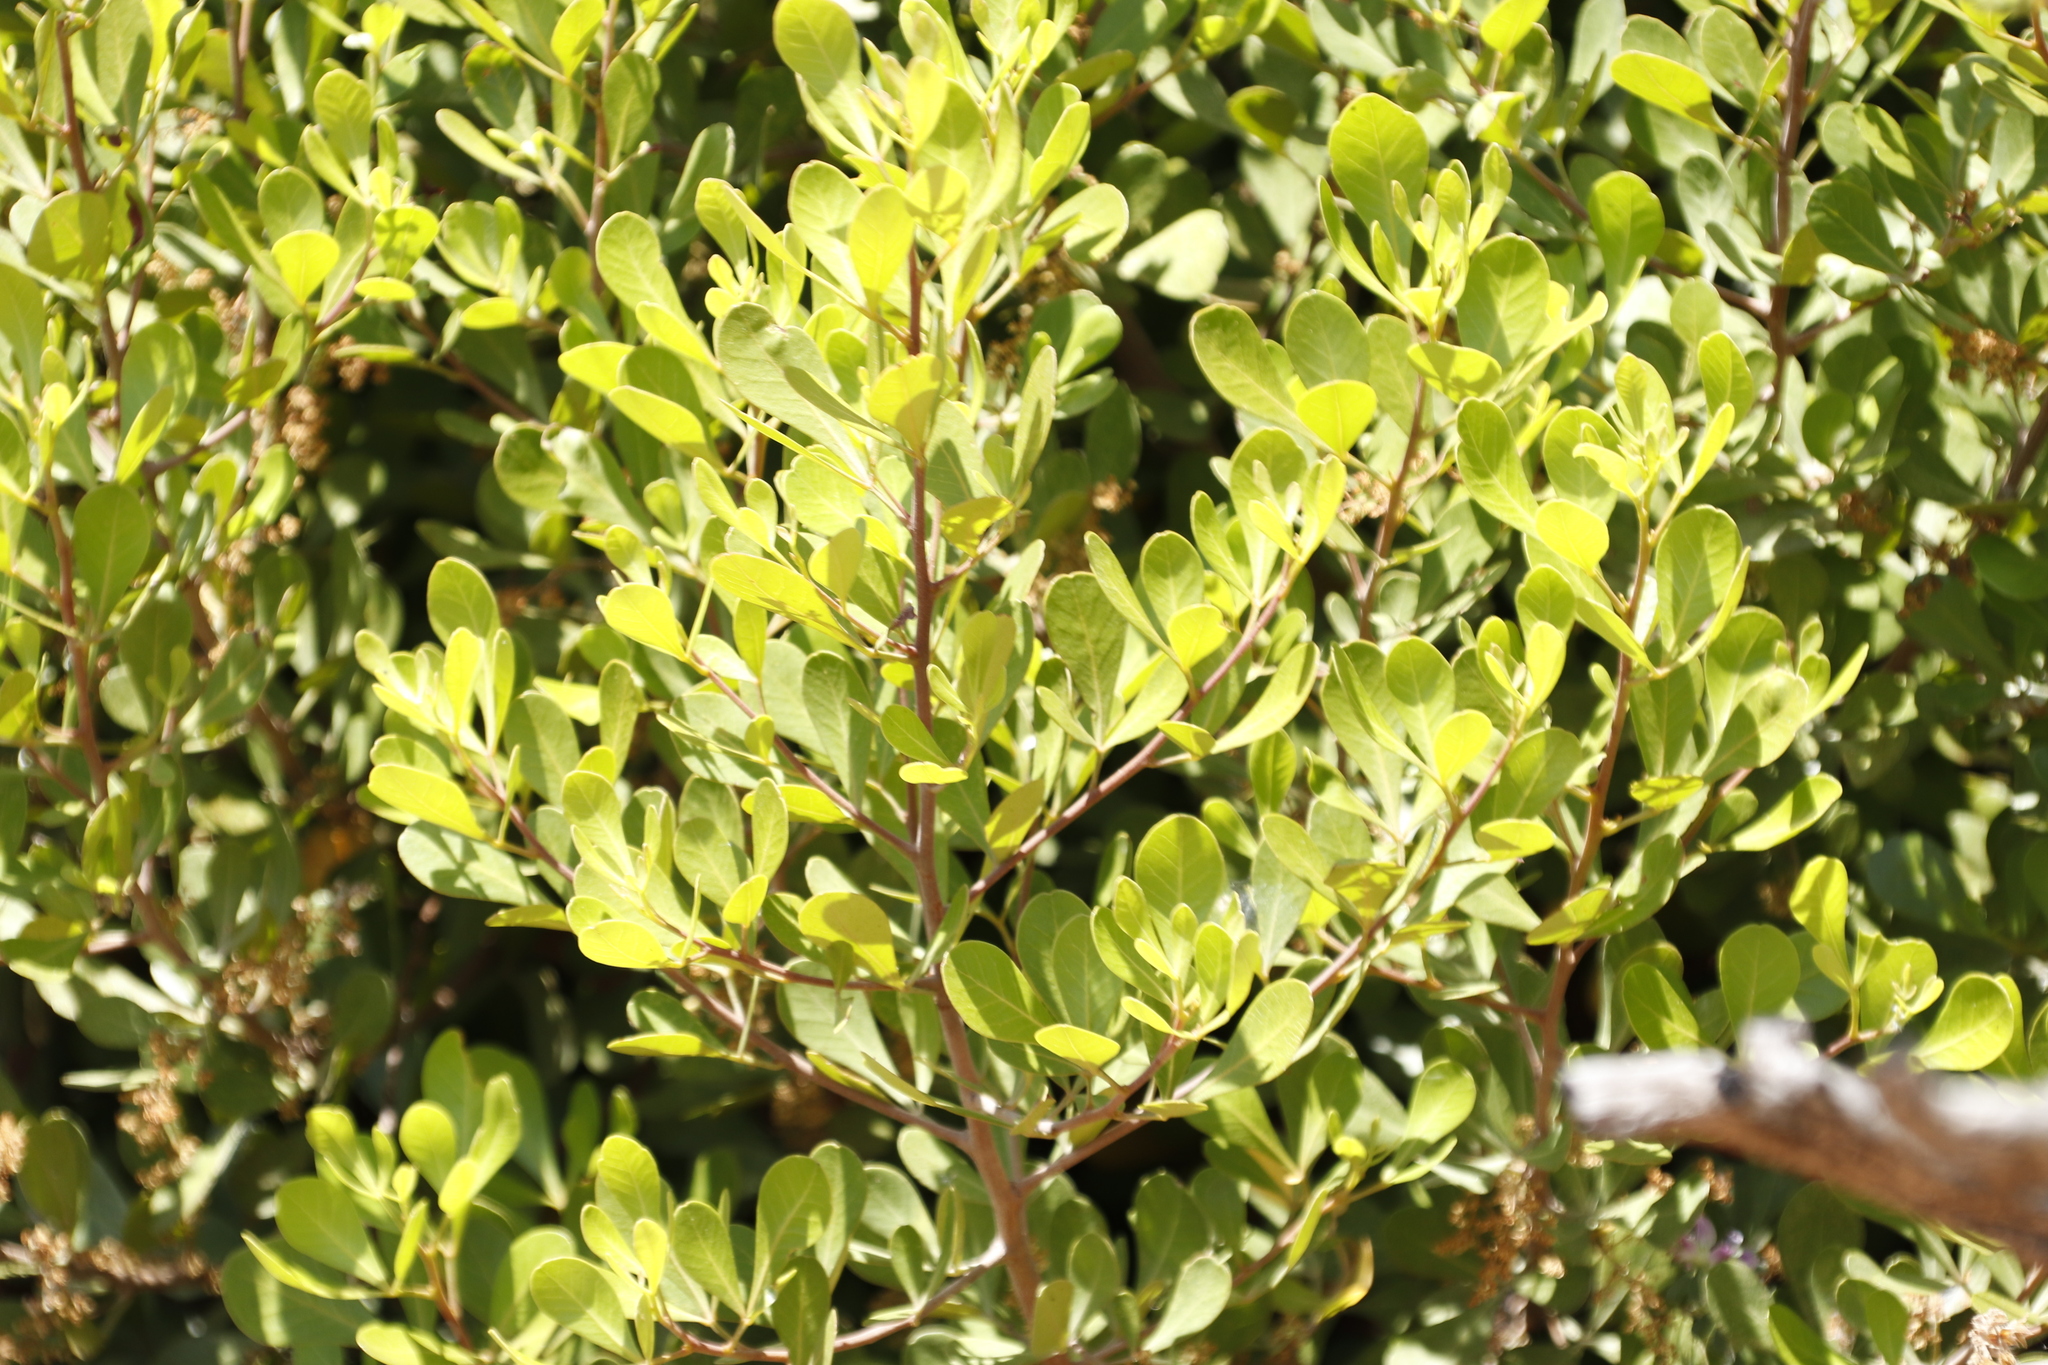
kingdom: Plantae
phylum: Tracheophyta
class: Magnoliopsida
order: Sapindales
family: Anacardiaceae
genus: Searsia
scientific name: Searsia lucida
